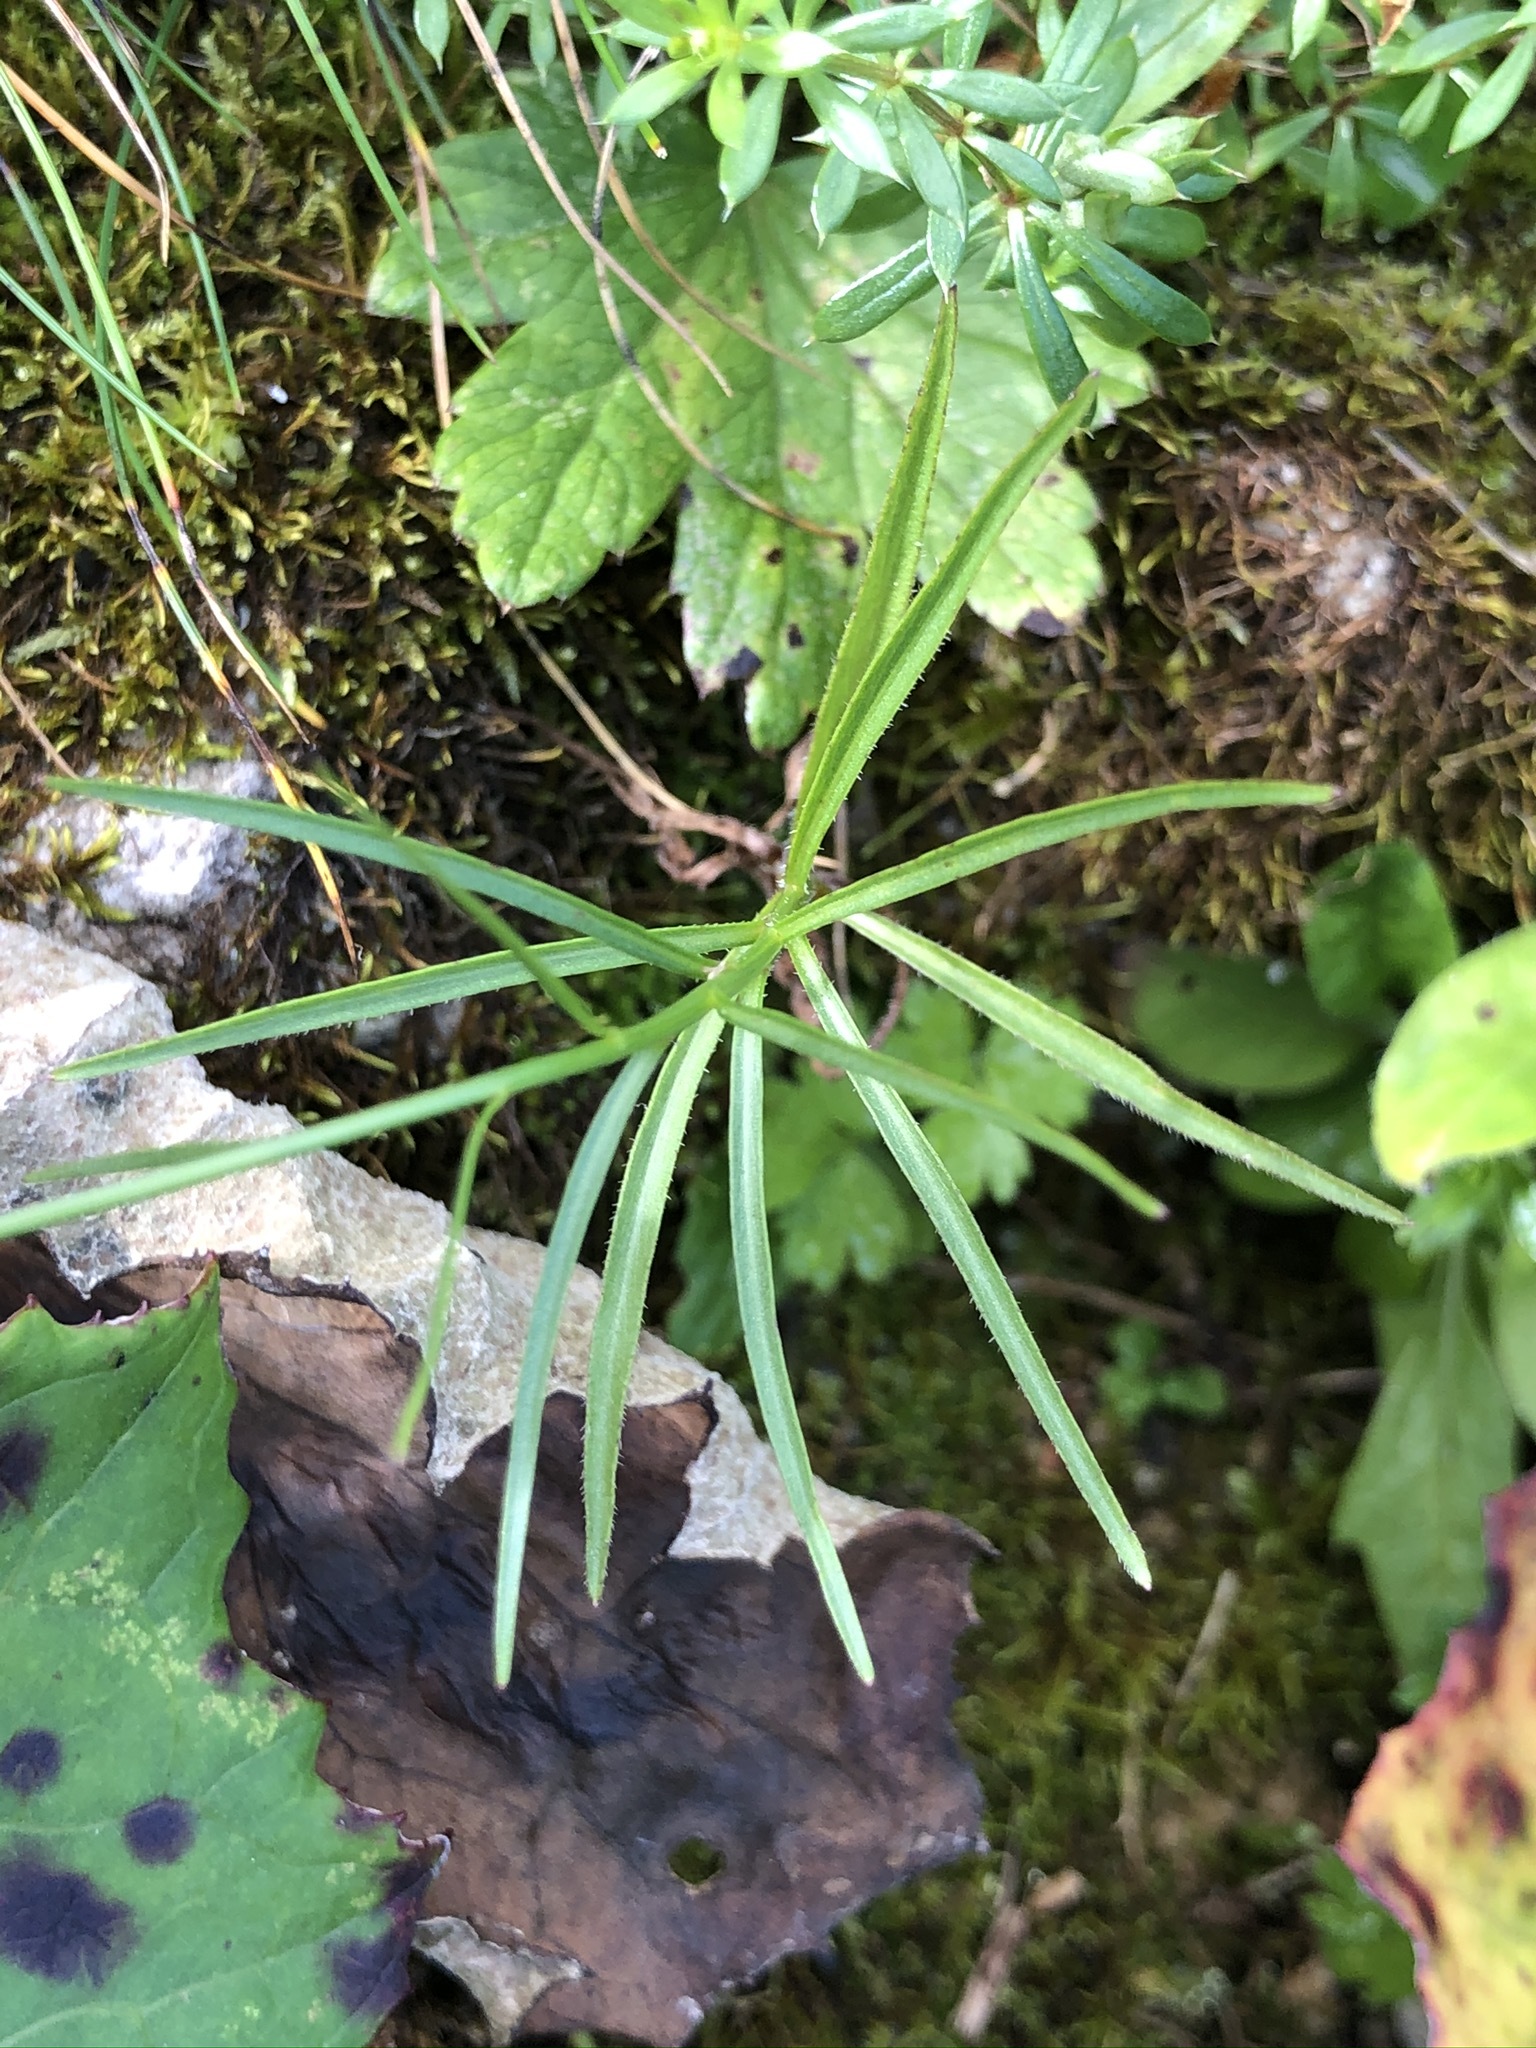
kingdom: Plantae
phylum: Tracheophyta
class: Magnoliopsida
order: Asterales
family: Campanulaceae
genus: Campanula
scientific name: Campanula scheuchzeri
